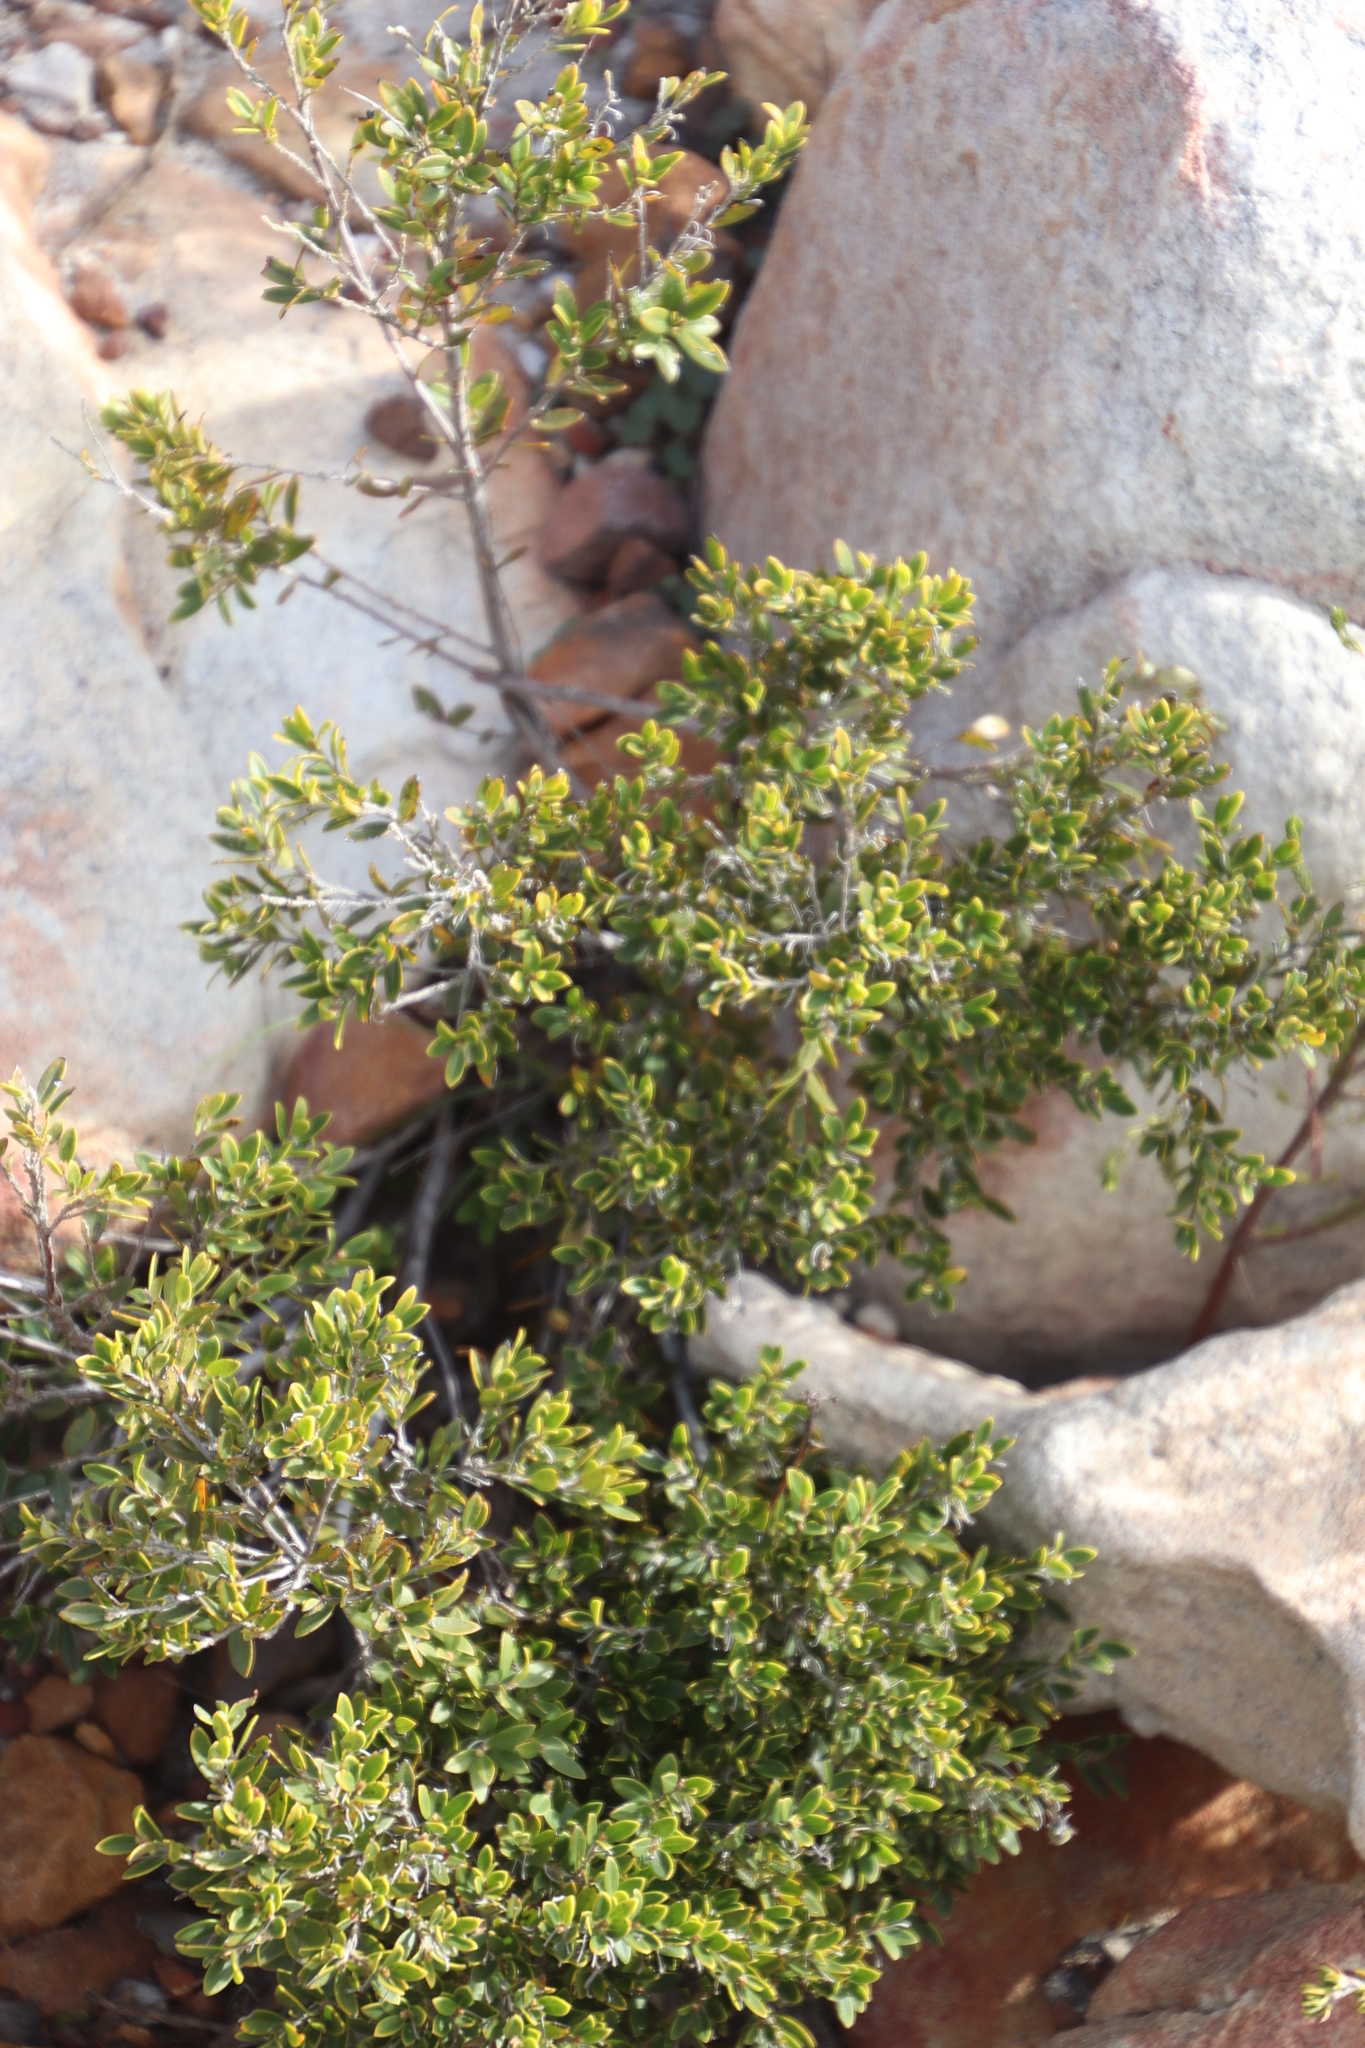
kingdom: Plantae
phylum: Tracheophyta
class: Magnoliopsida
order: Ericales
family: Ebenaceae
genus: Diospyros
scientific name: Diospyros glabra
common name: Fynbos star apple
